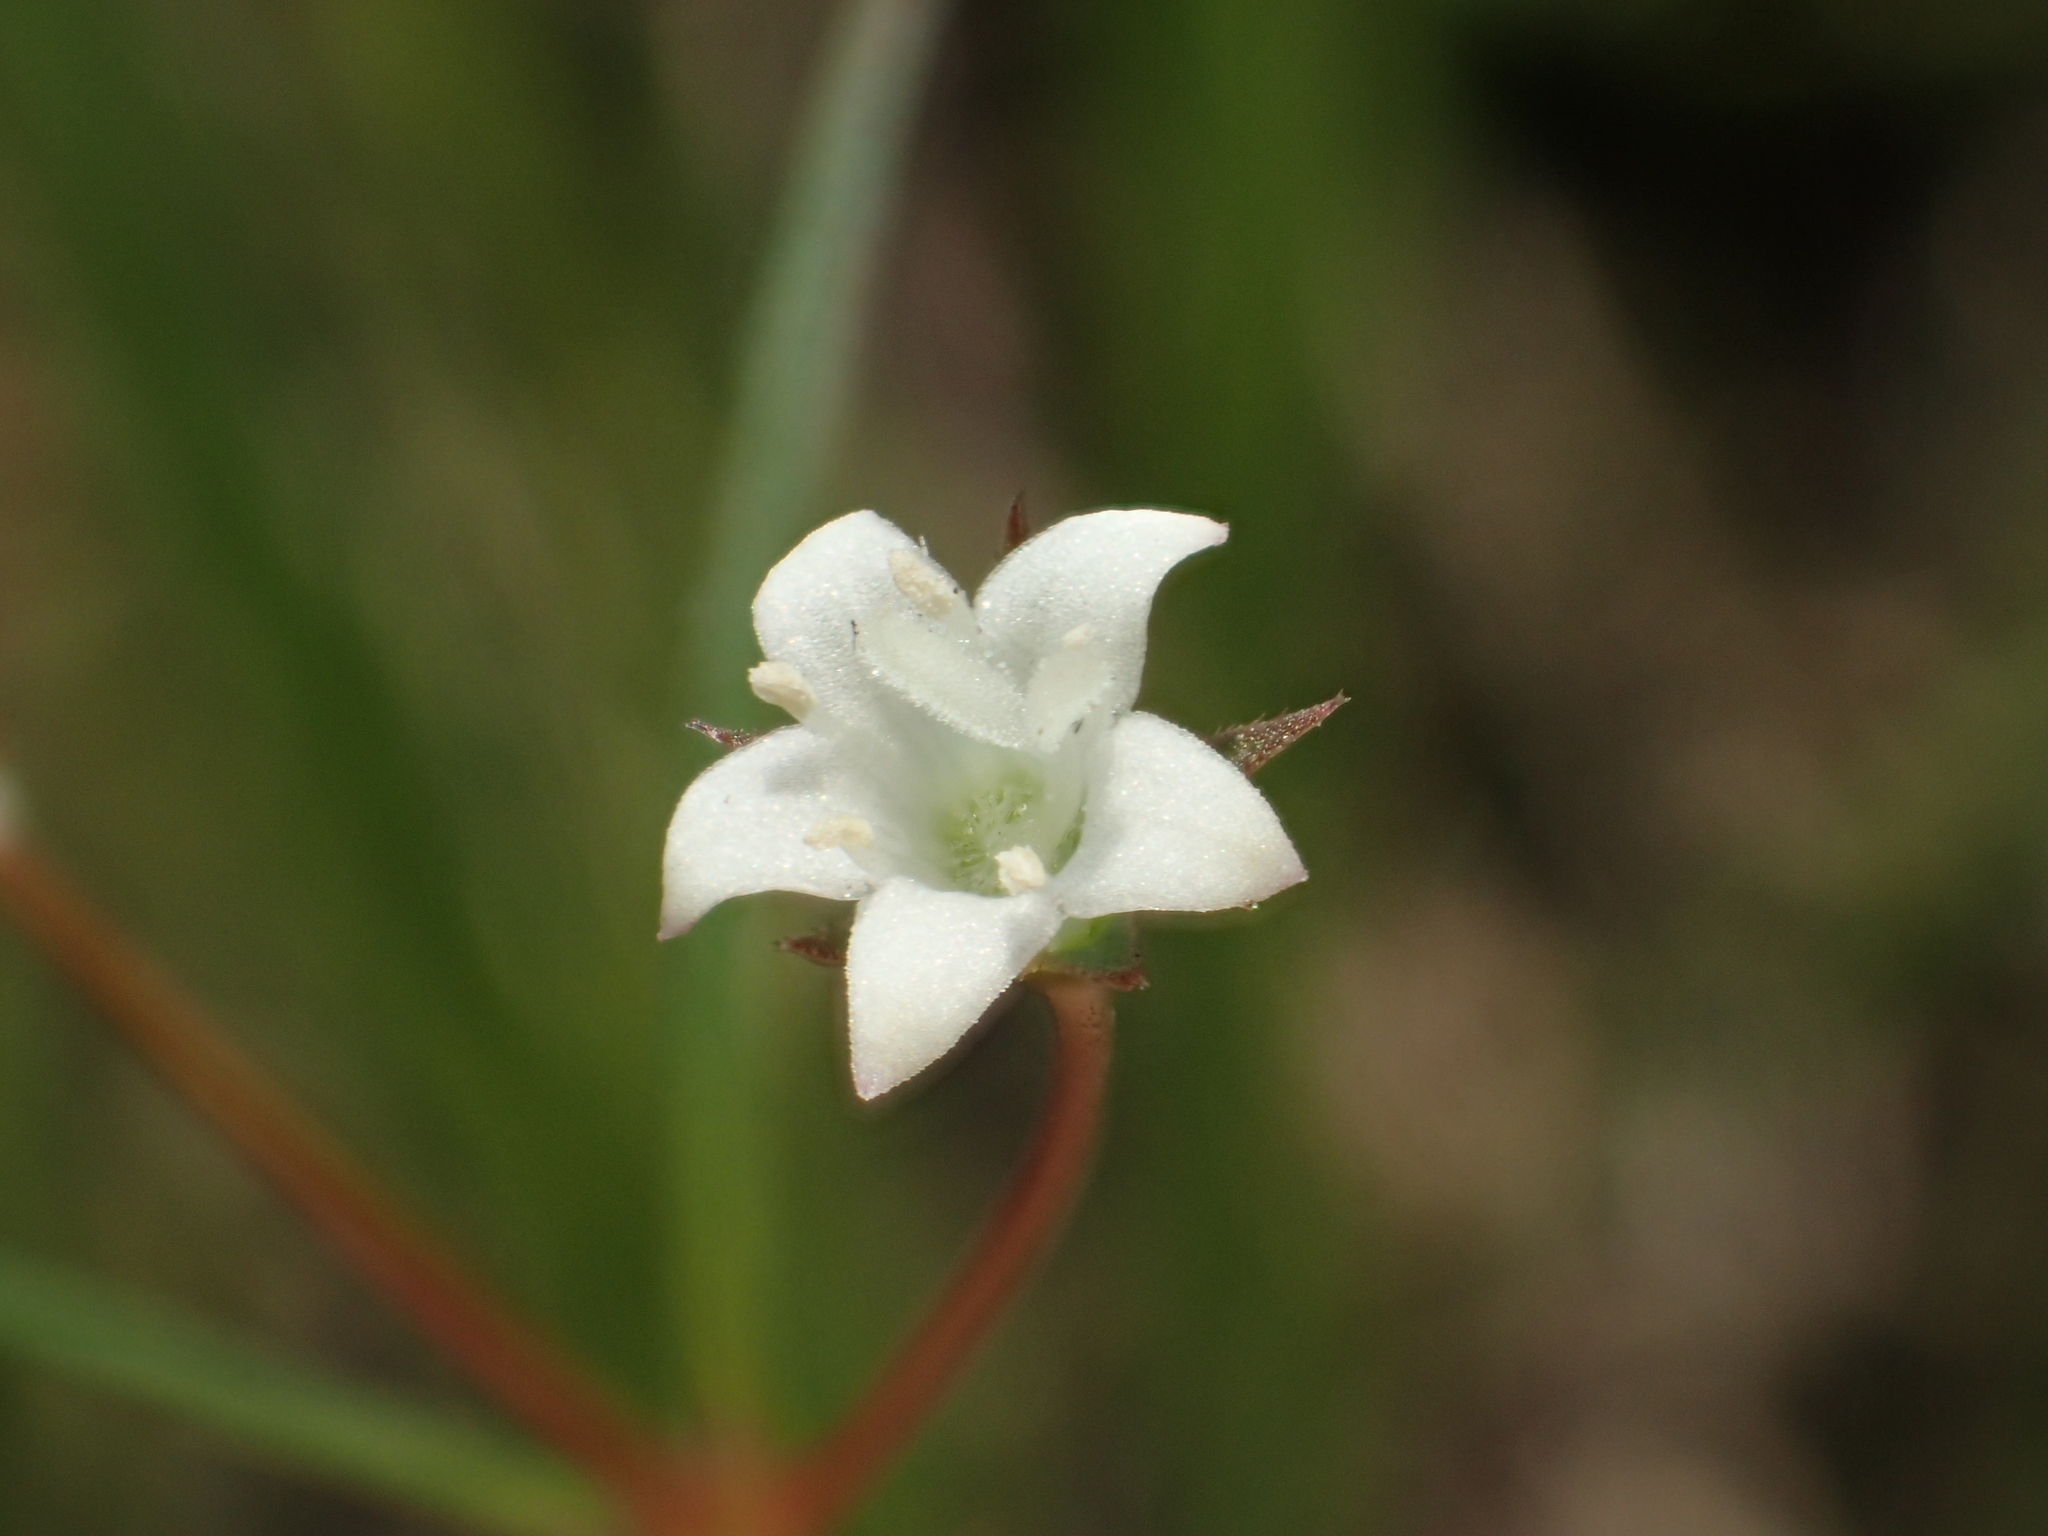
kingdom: Plantae
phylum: Tracheophyta
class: Magnoliopsida
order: Gentianales
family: Rubiaceae
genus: Scleromitrion
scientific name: Scleromitrion koanum
